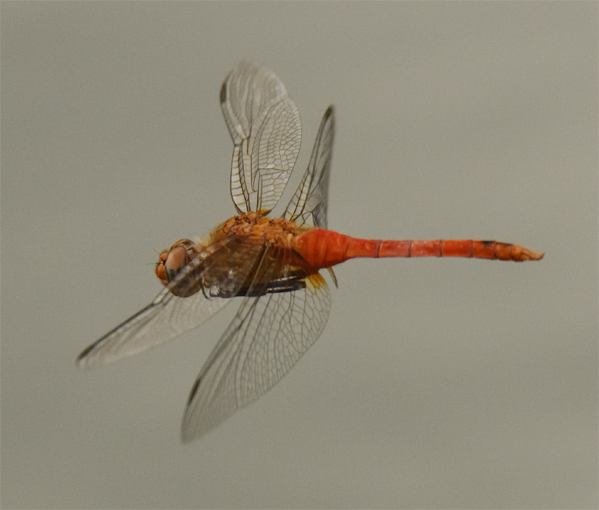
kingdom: Animalia
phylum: Arthropoda
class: Insecta
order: Odonata
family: Libellulidae
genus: Brachymesia
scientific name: Brachymesia furcata
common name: Red-taled pennant
